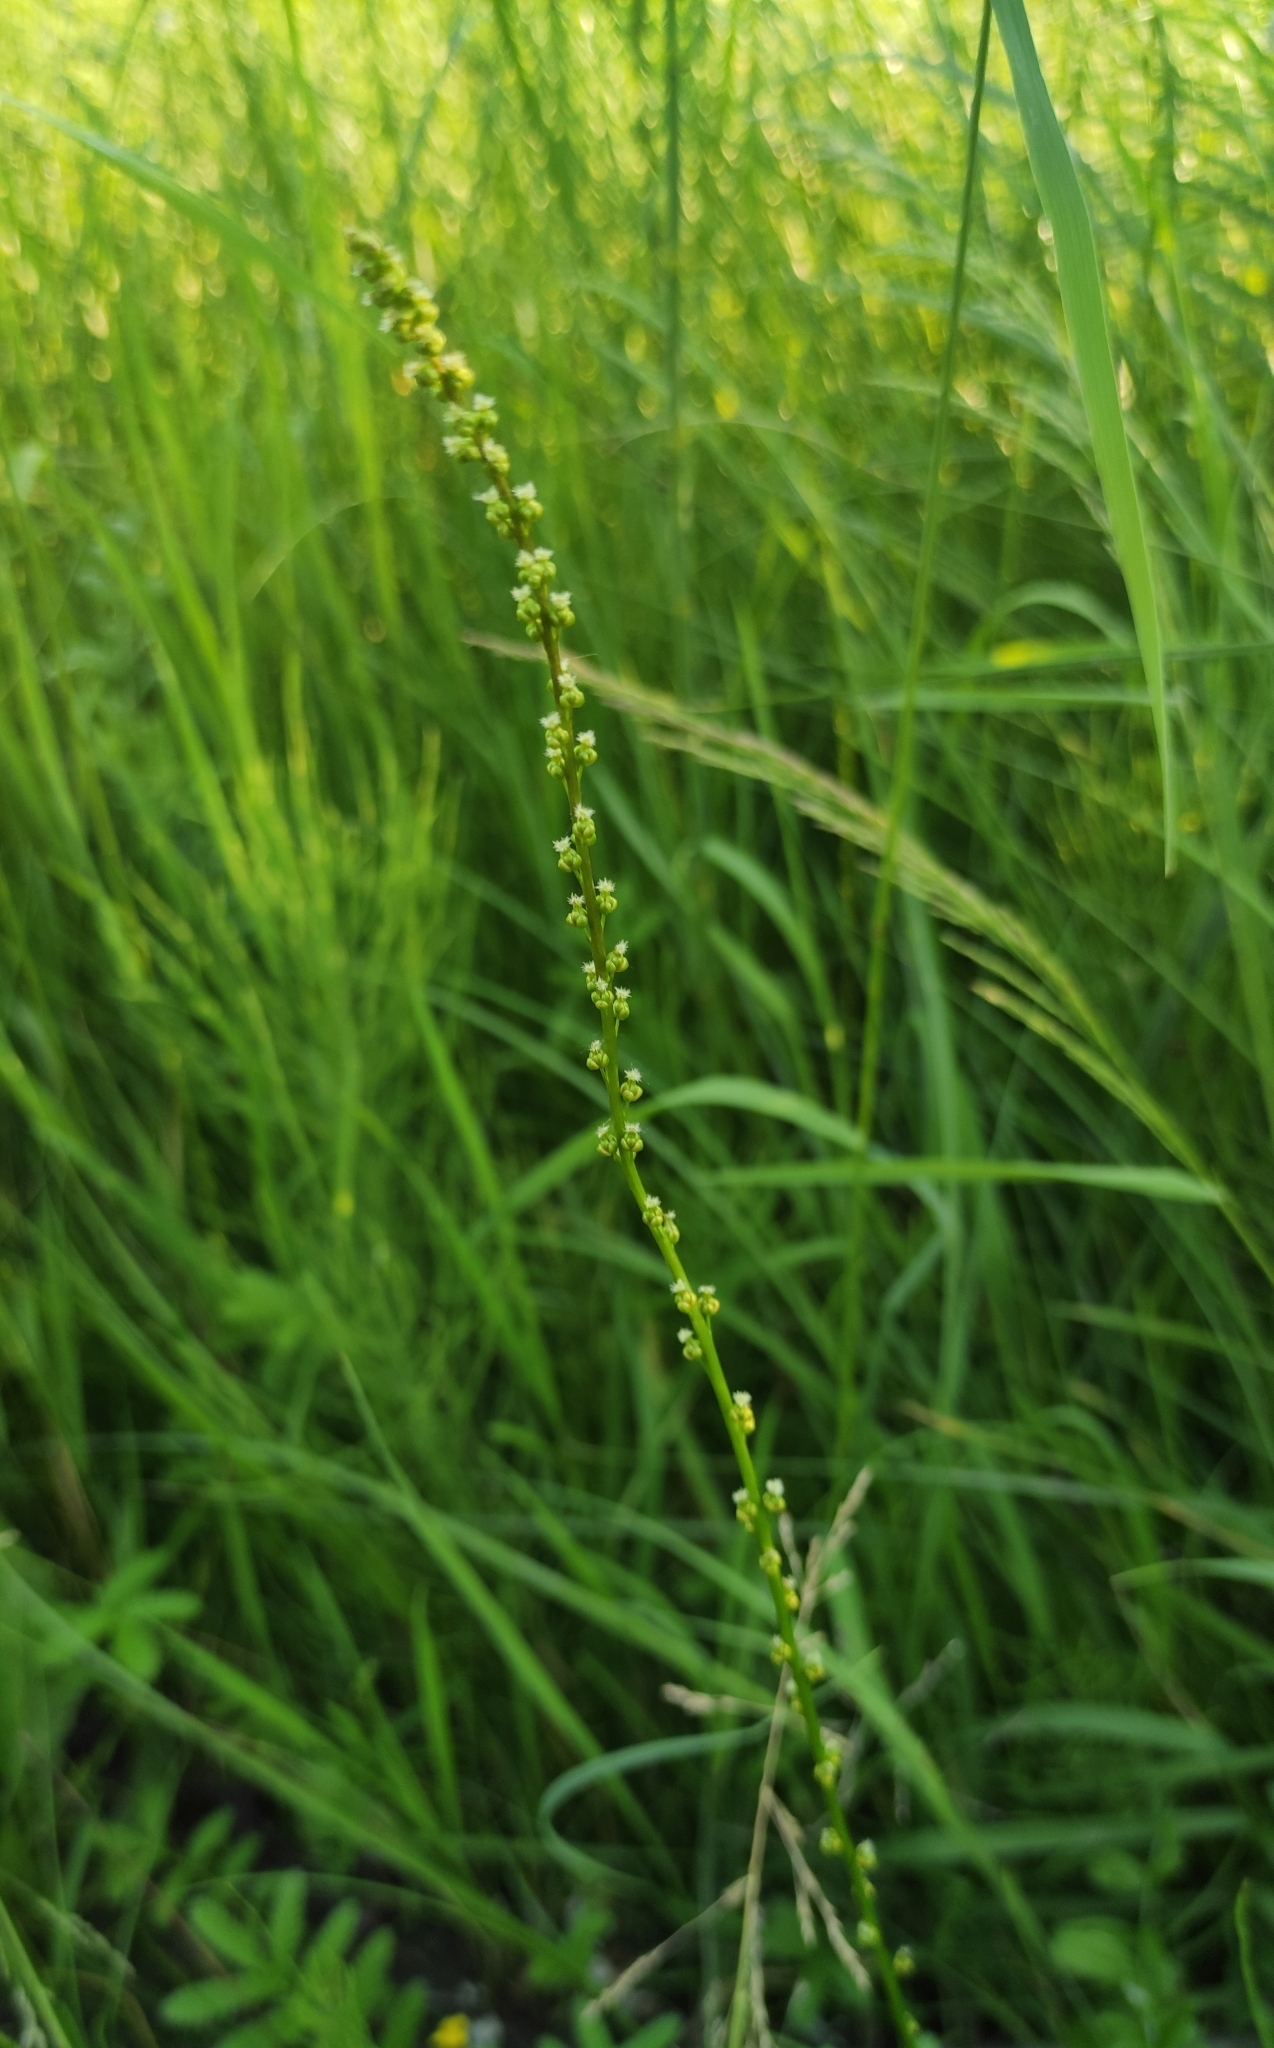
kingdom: Plantae
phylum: Tracheophyta
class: Liliopsida
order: Alismatales
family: Juncaginaceae
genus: Triglochin
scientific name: Triglochin palustris
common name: Marsh arrowgrass
